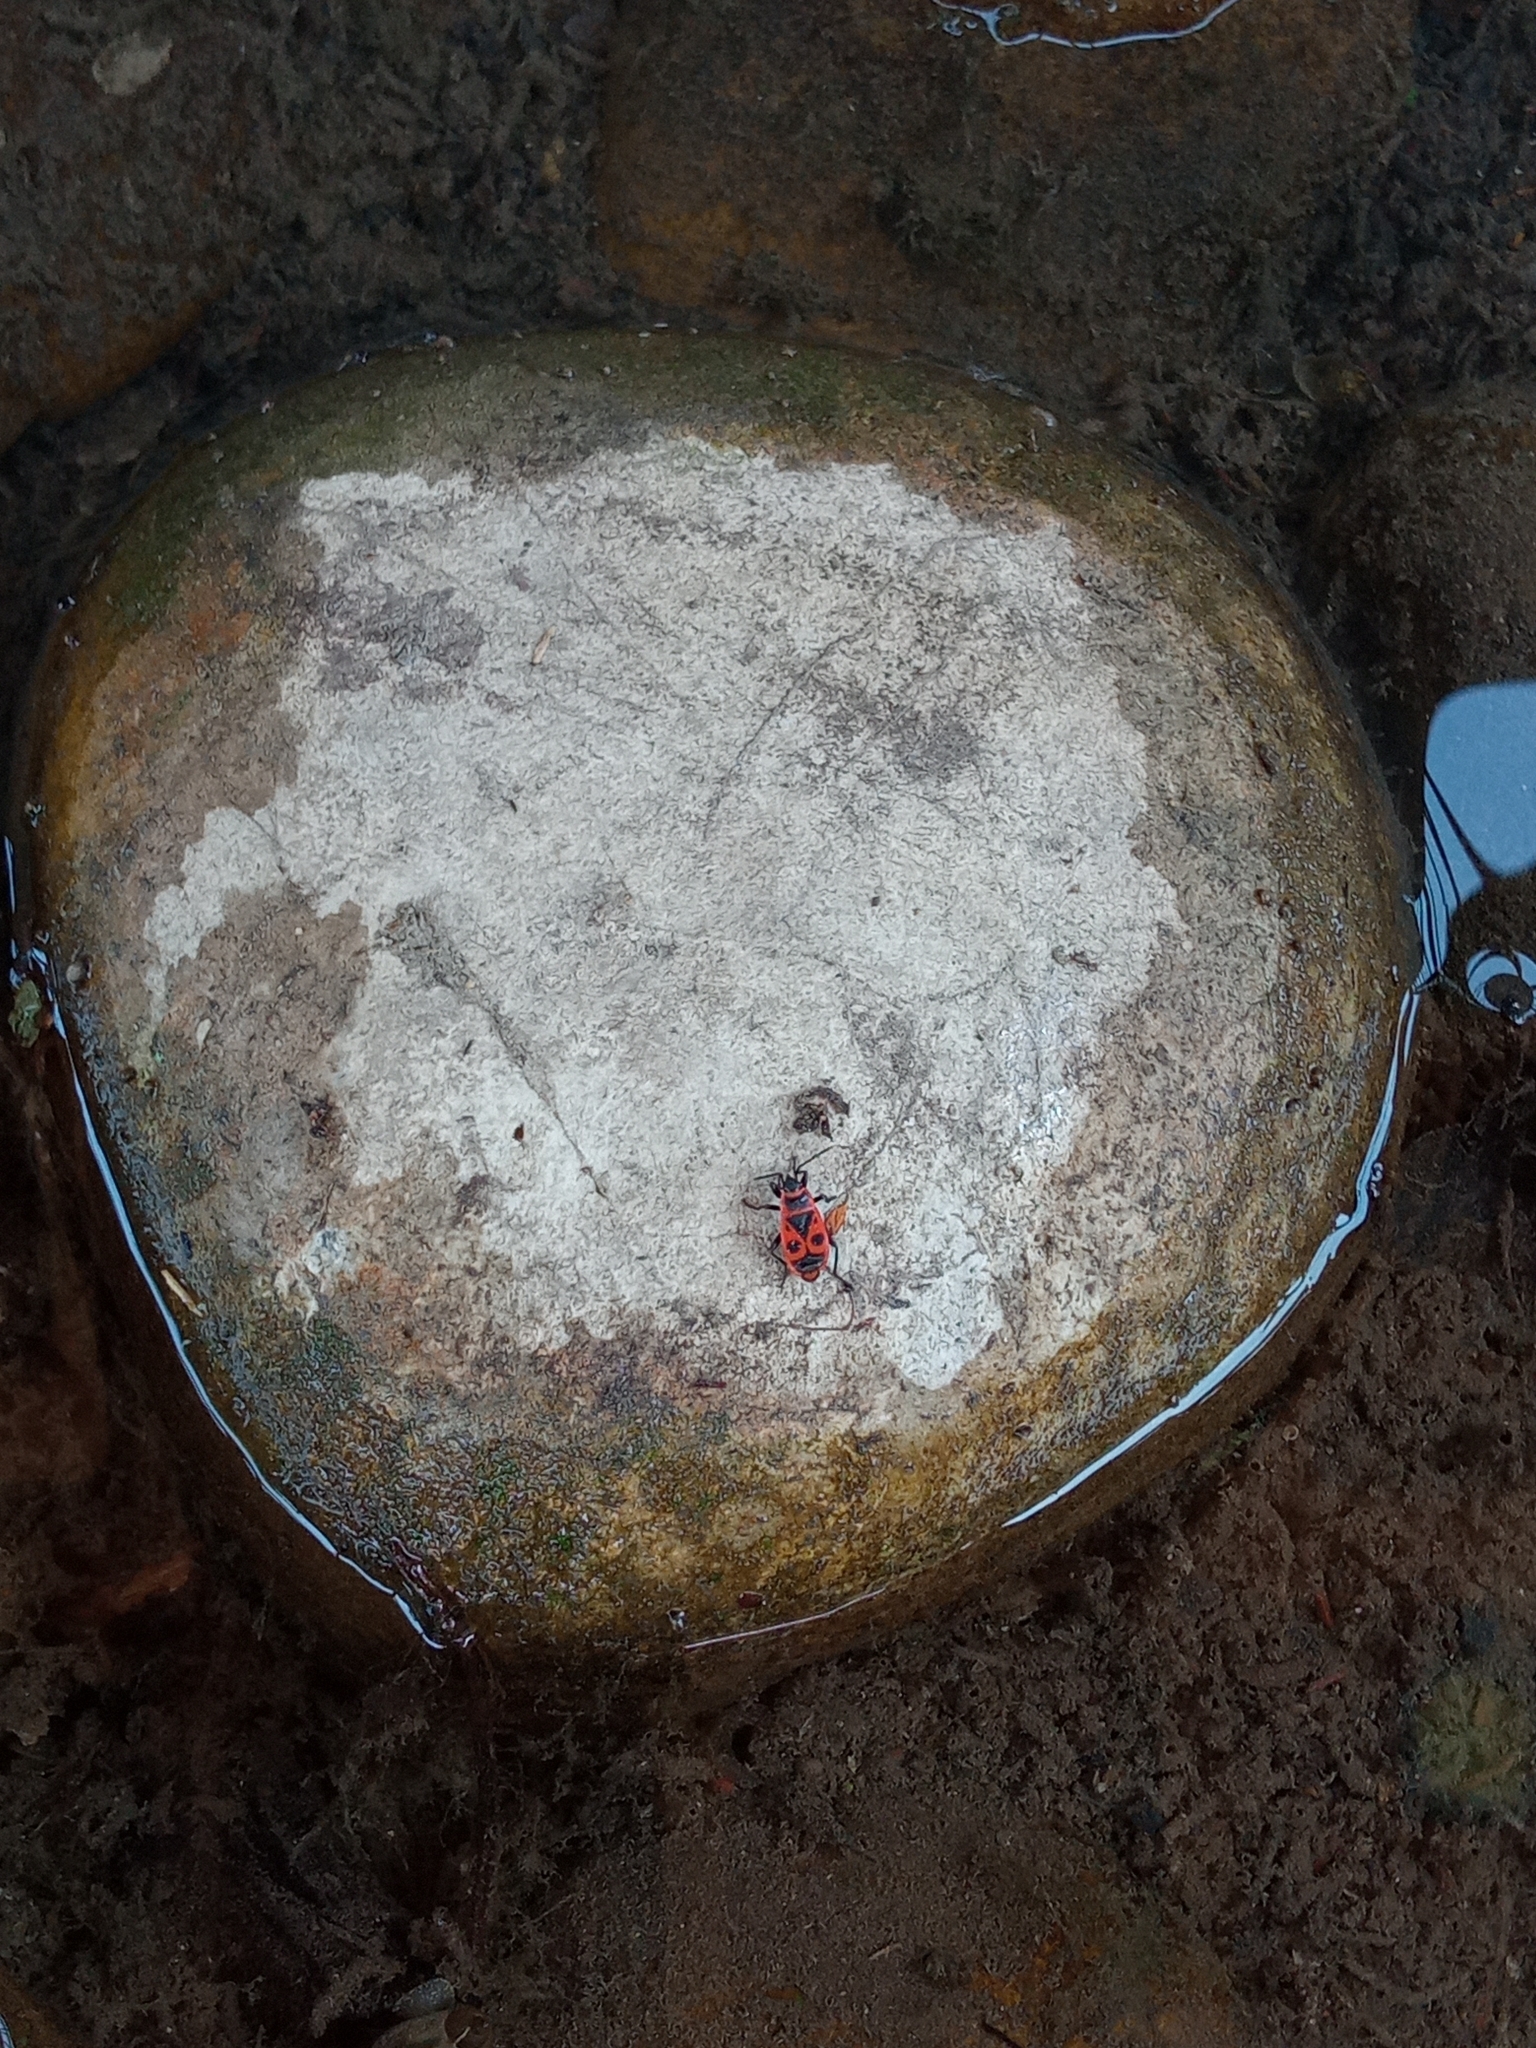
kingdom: Animalia
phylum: Arthropoda
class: Insecta
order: Hemiptera
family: Pyrrhocoridae
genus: Pyrrhocoris
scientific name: Pyrrhocoris apterus
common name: Firebug
